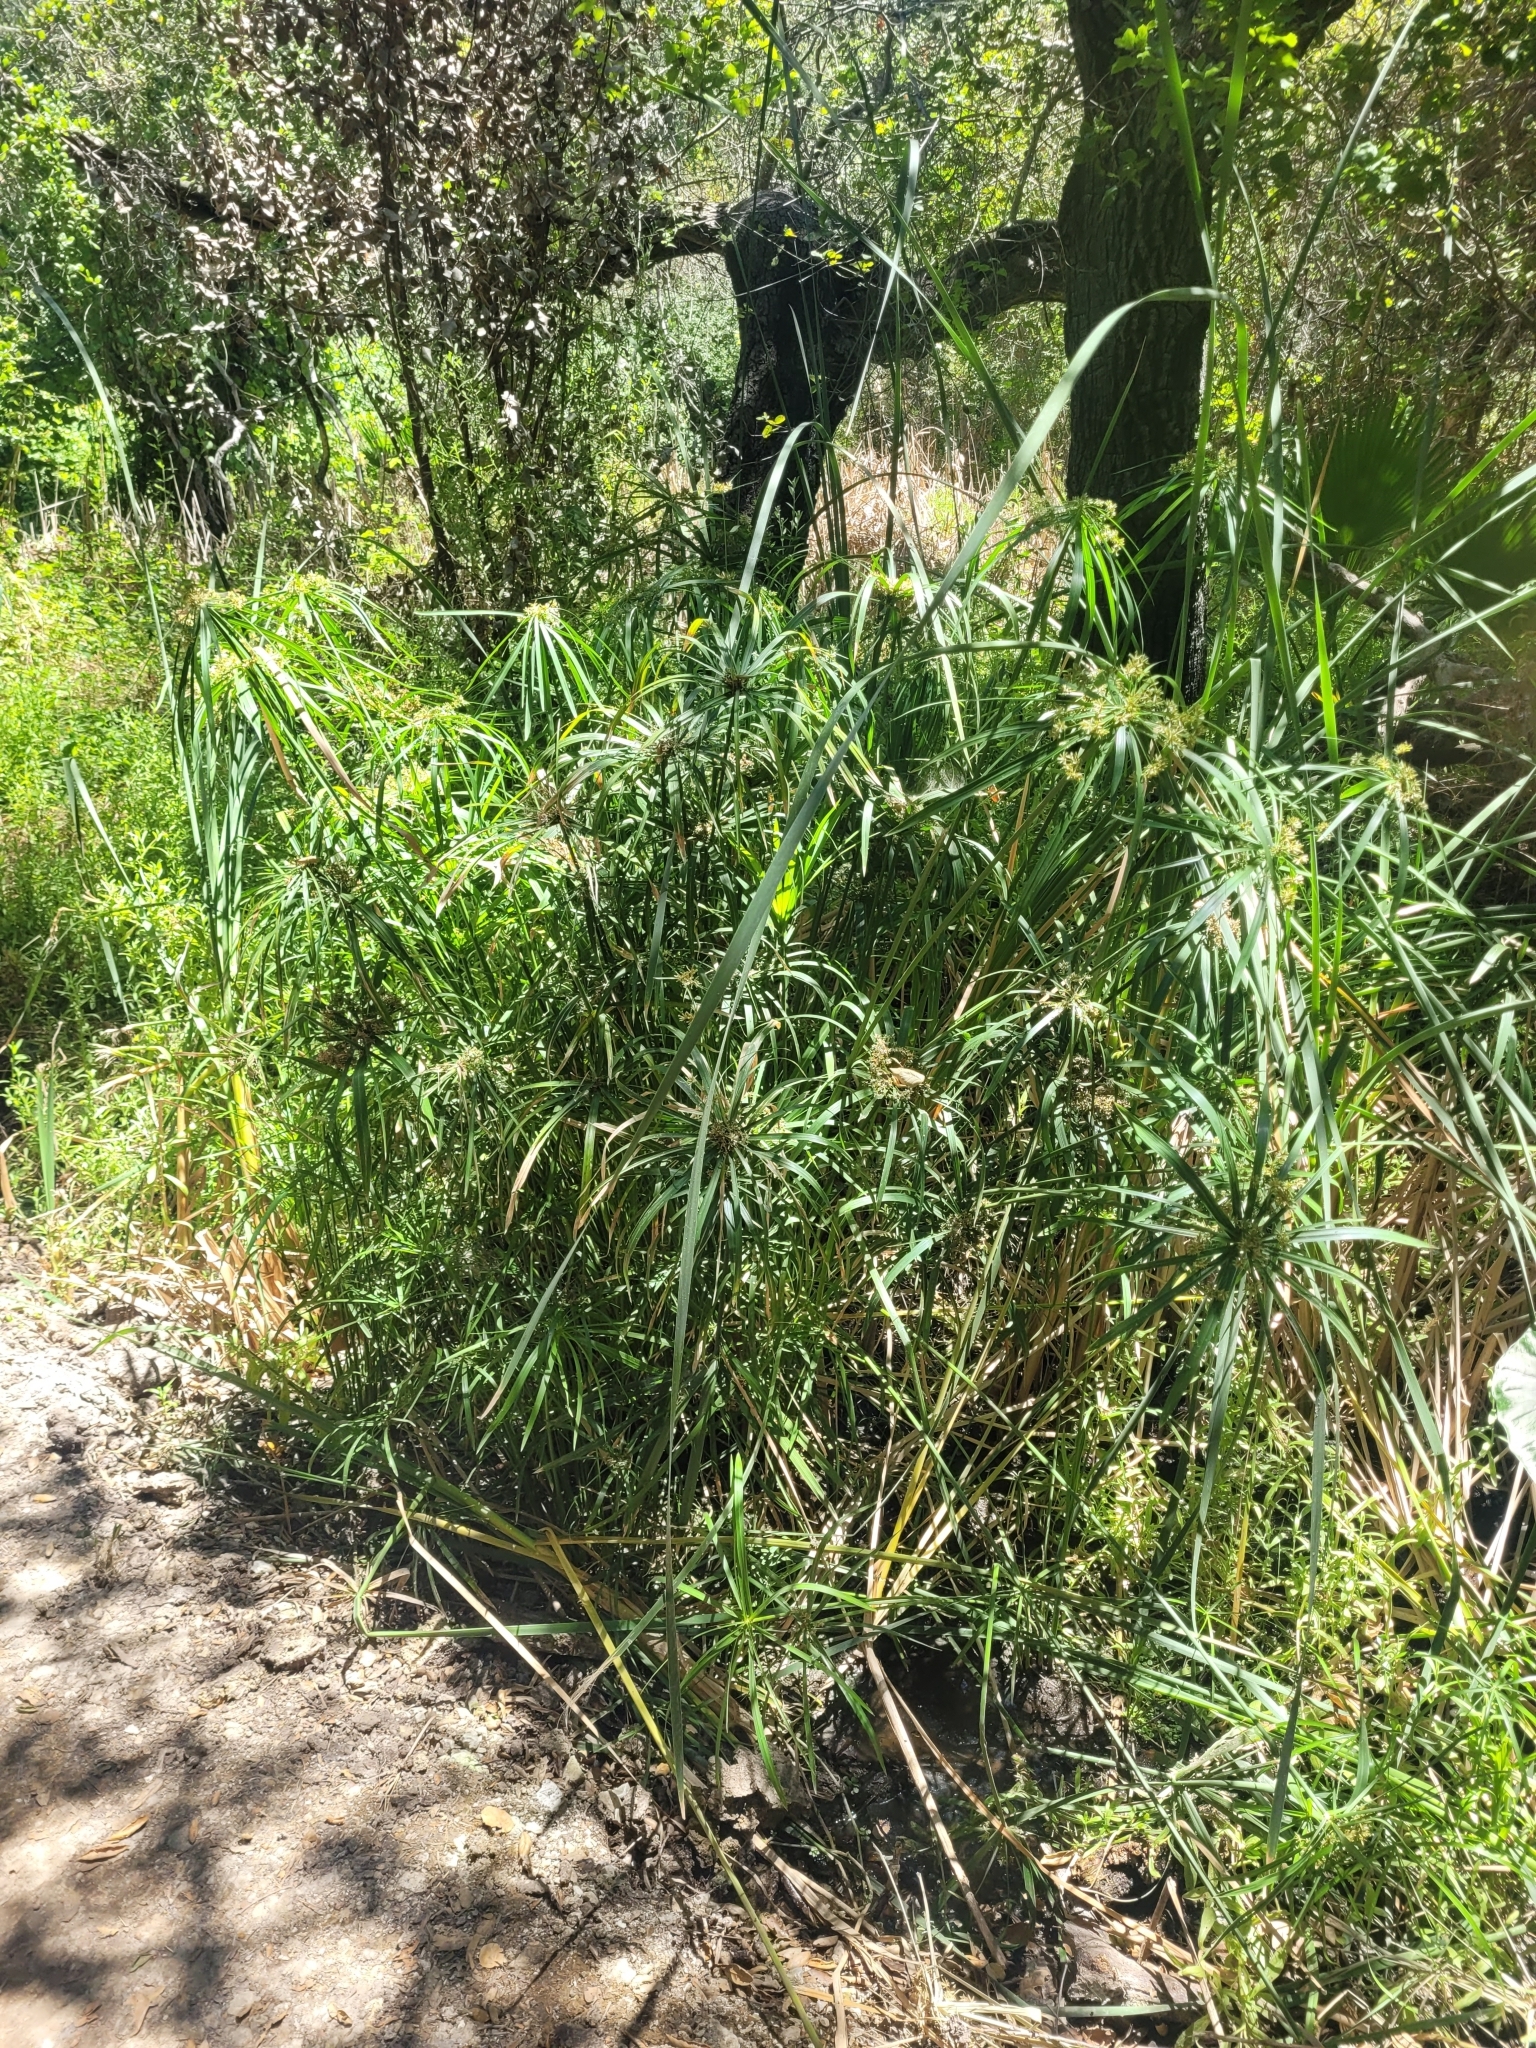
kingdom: Plantae
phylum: Tracheophyta
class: Liliopsida
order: Poales
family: Cyperaceae
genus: Cyperus
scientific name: Cyperus alternifolius
